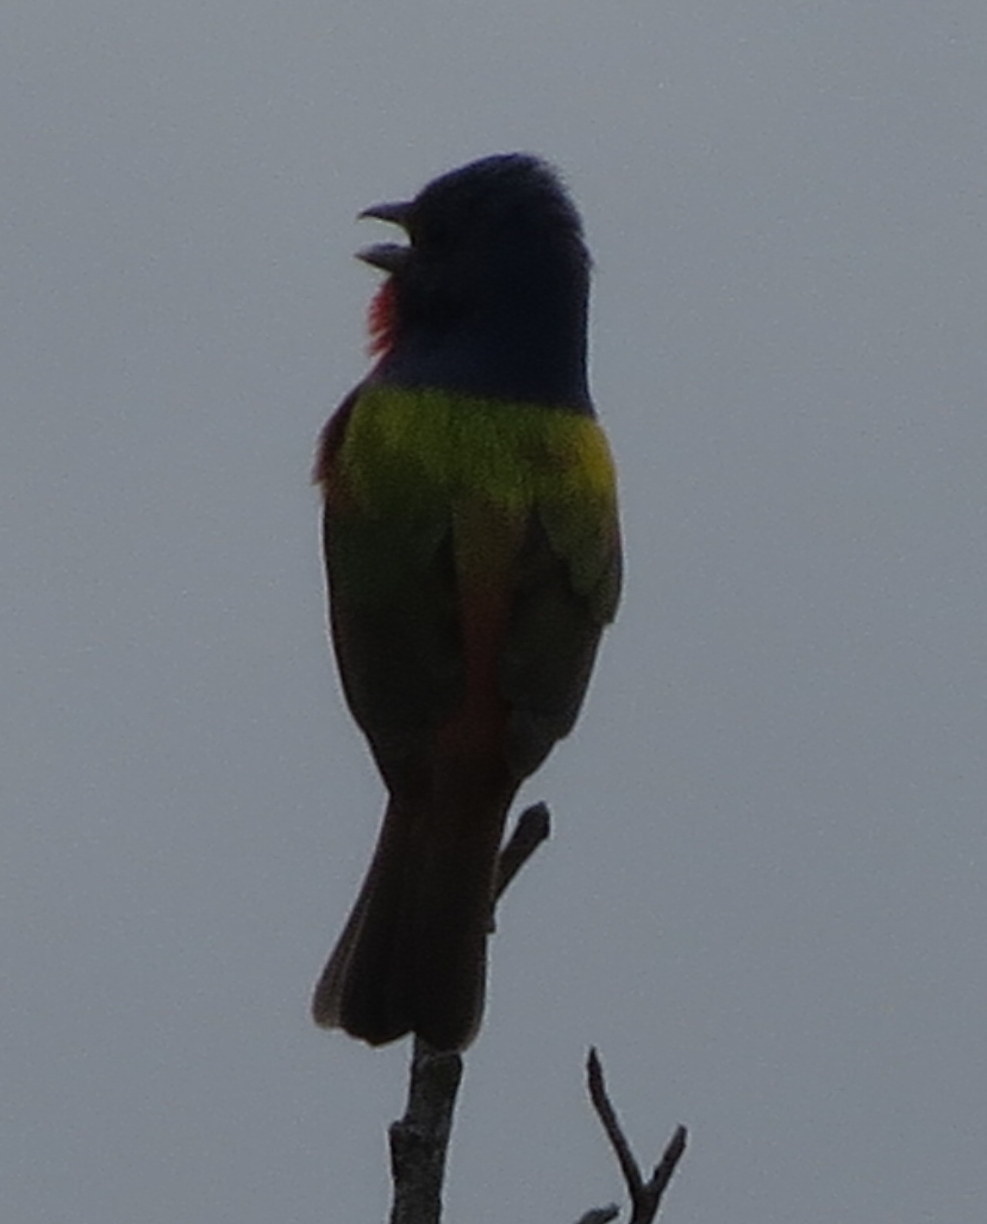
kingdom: Animalia
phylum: Chordata
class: Aves
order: Passeriformes
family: Cardinalidae
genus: Passerina
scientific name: Passerina ciris
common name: Painted bunting
